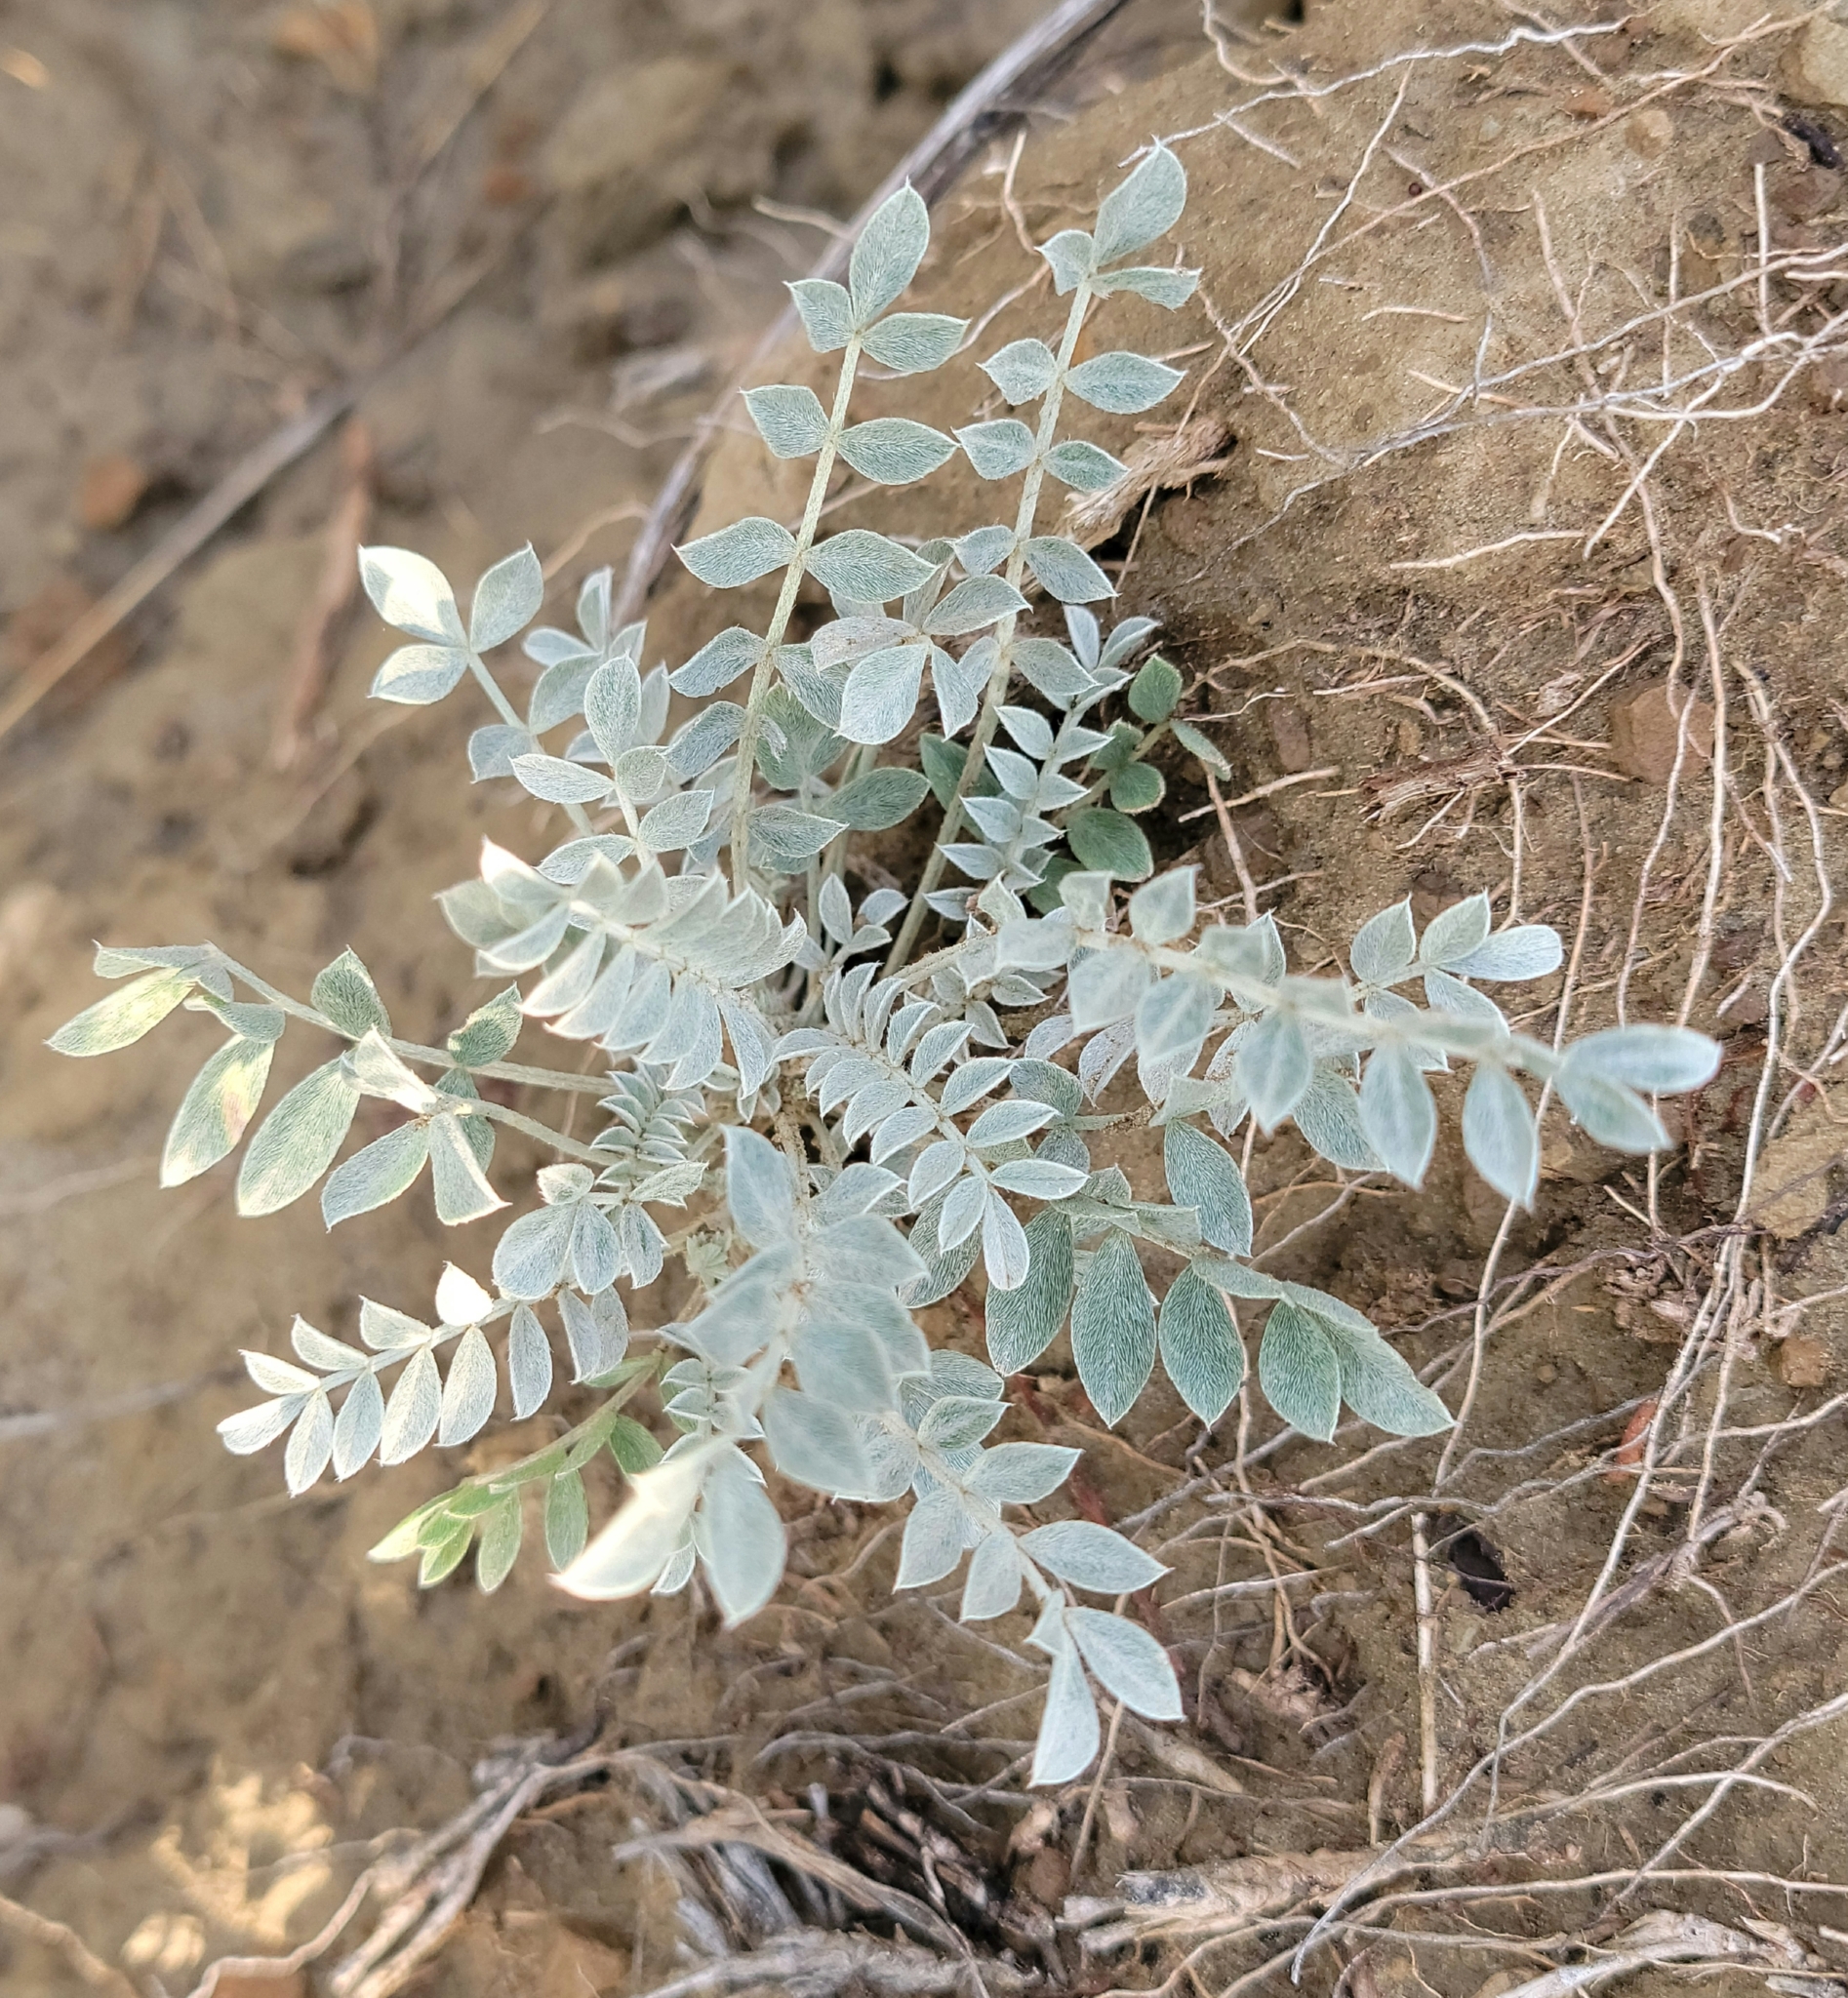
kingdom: Plantae
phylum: Tracheophyta
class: Magnoliopsida
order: Fabales
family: Fabaceae
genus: Astragalus
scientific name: Astragalus missouriensis
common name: Missouri milk-vetch
